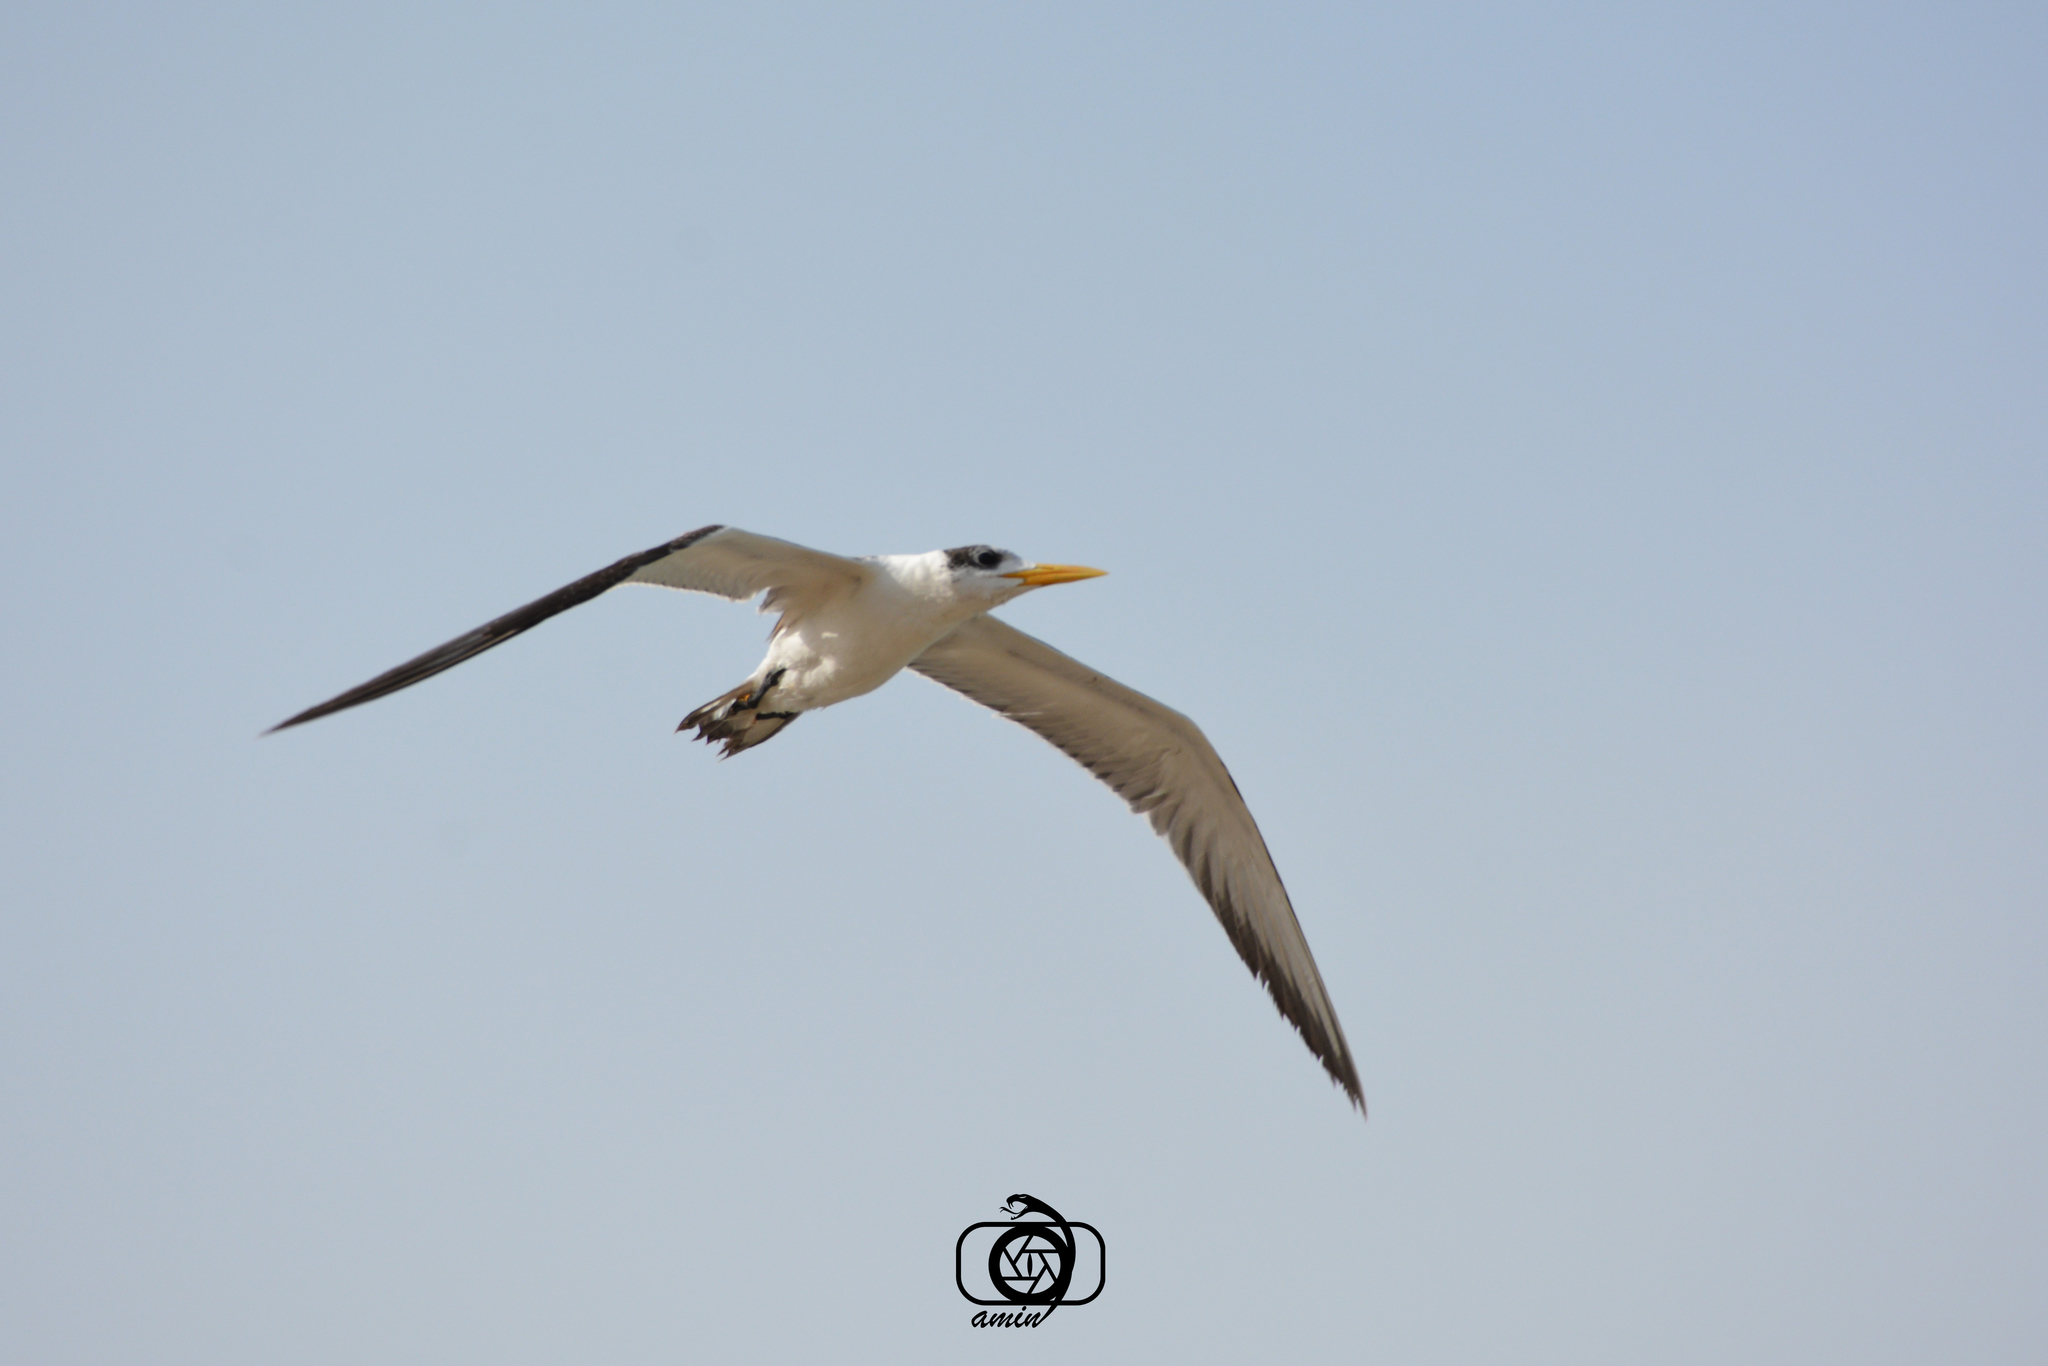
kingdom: Animalia
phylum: Chordata
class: Aves
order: Charadriiformes
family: Laridae
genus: Thalasseus
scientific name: Thalasseus bergii
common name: Greater crested tern
